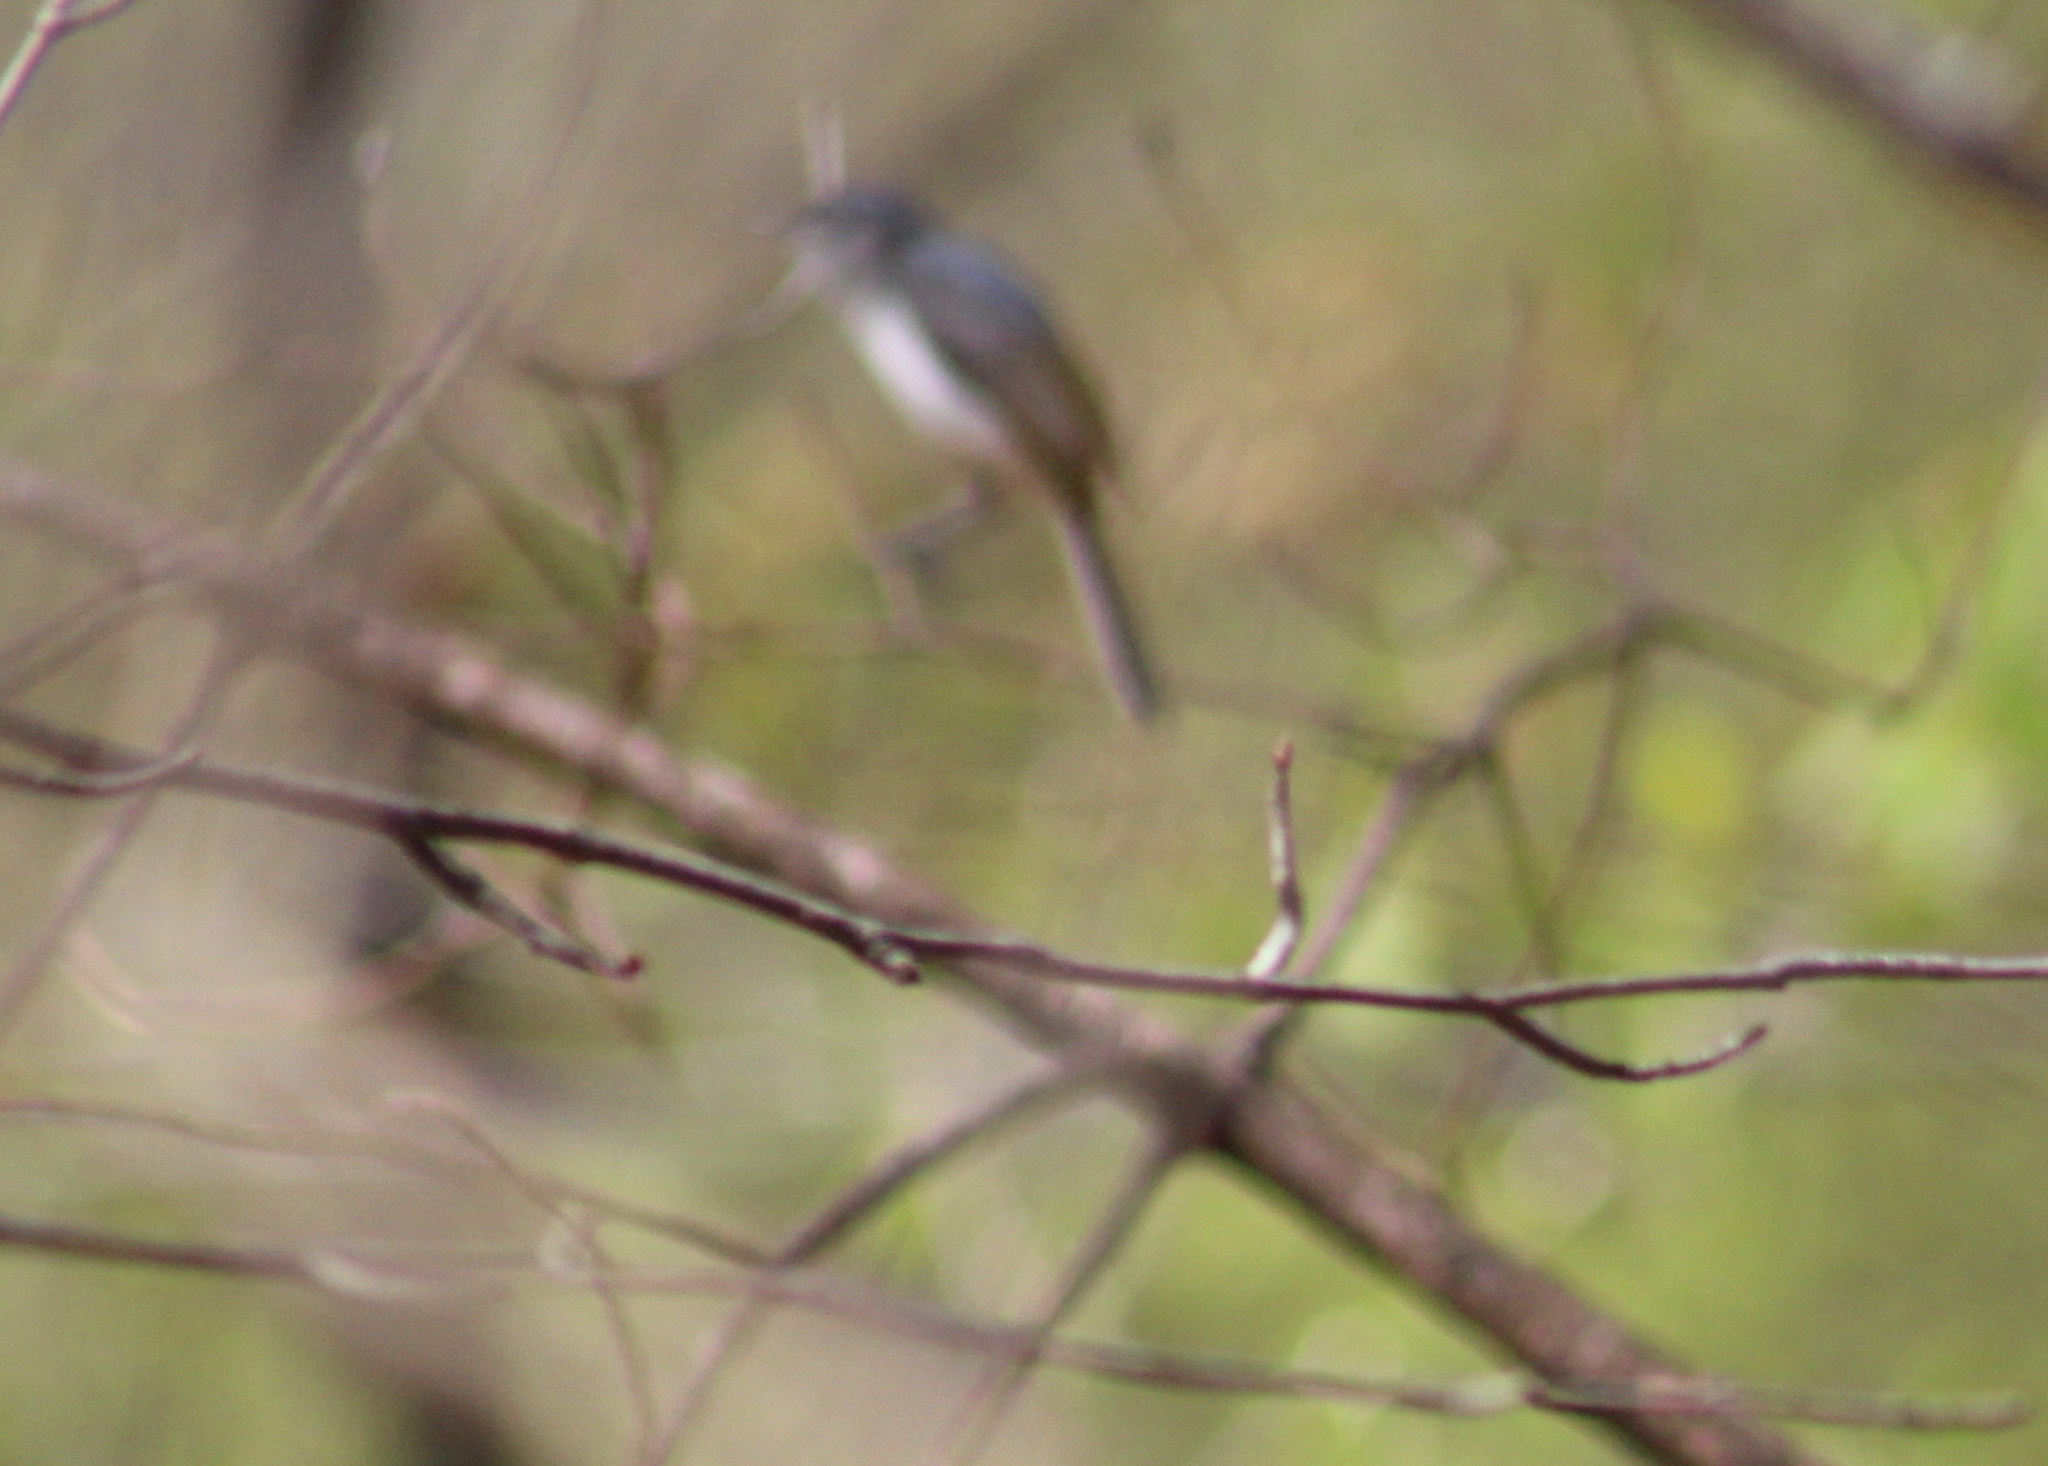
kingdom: Animalia
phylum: Chordata
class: Aves
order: Passeriformes
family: Polioptilidae
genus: Polioptila
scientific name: Polioptila caerulea
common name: Blue-gray gnatcatcher
